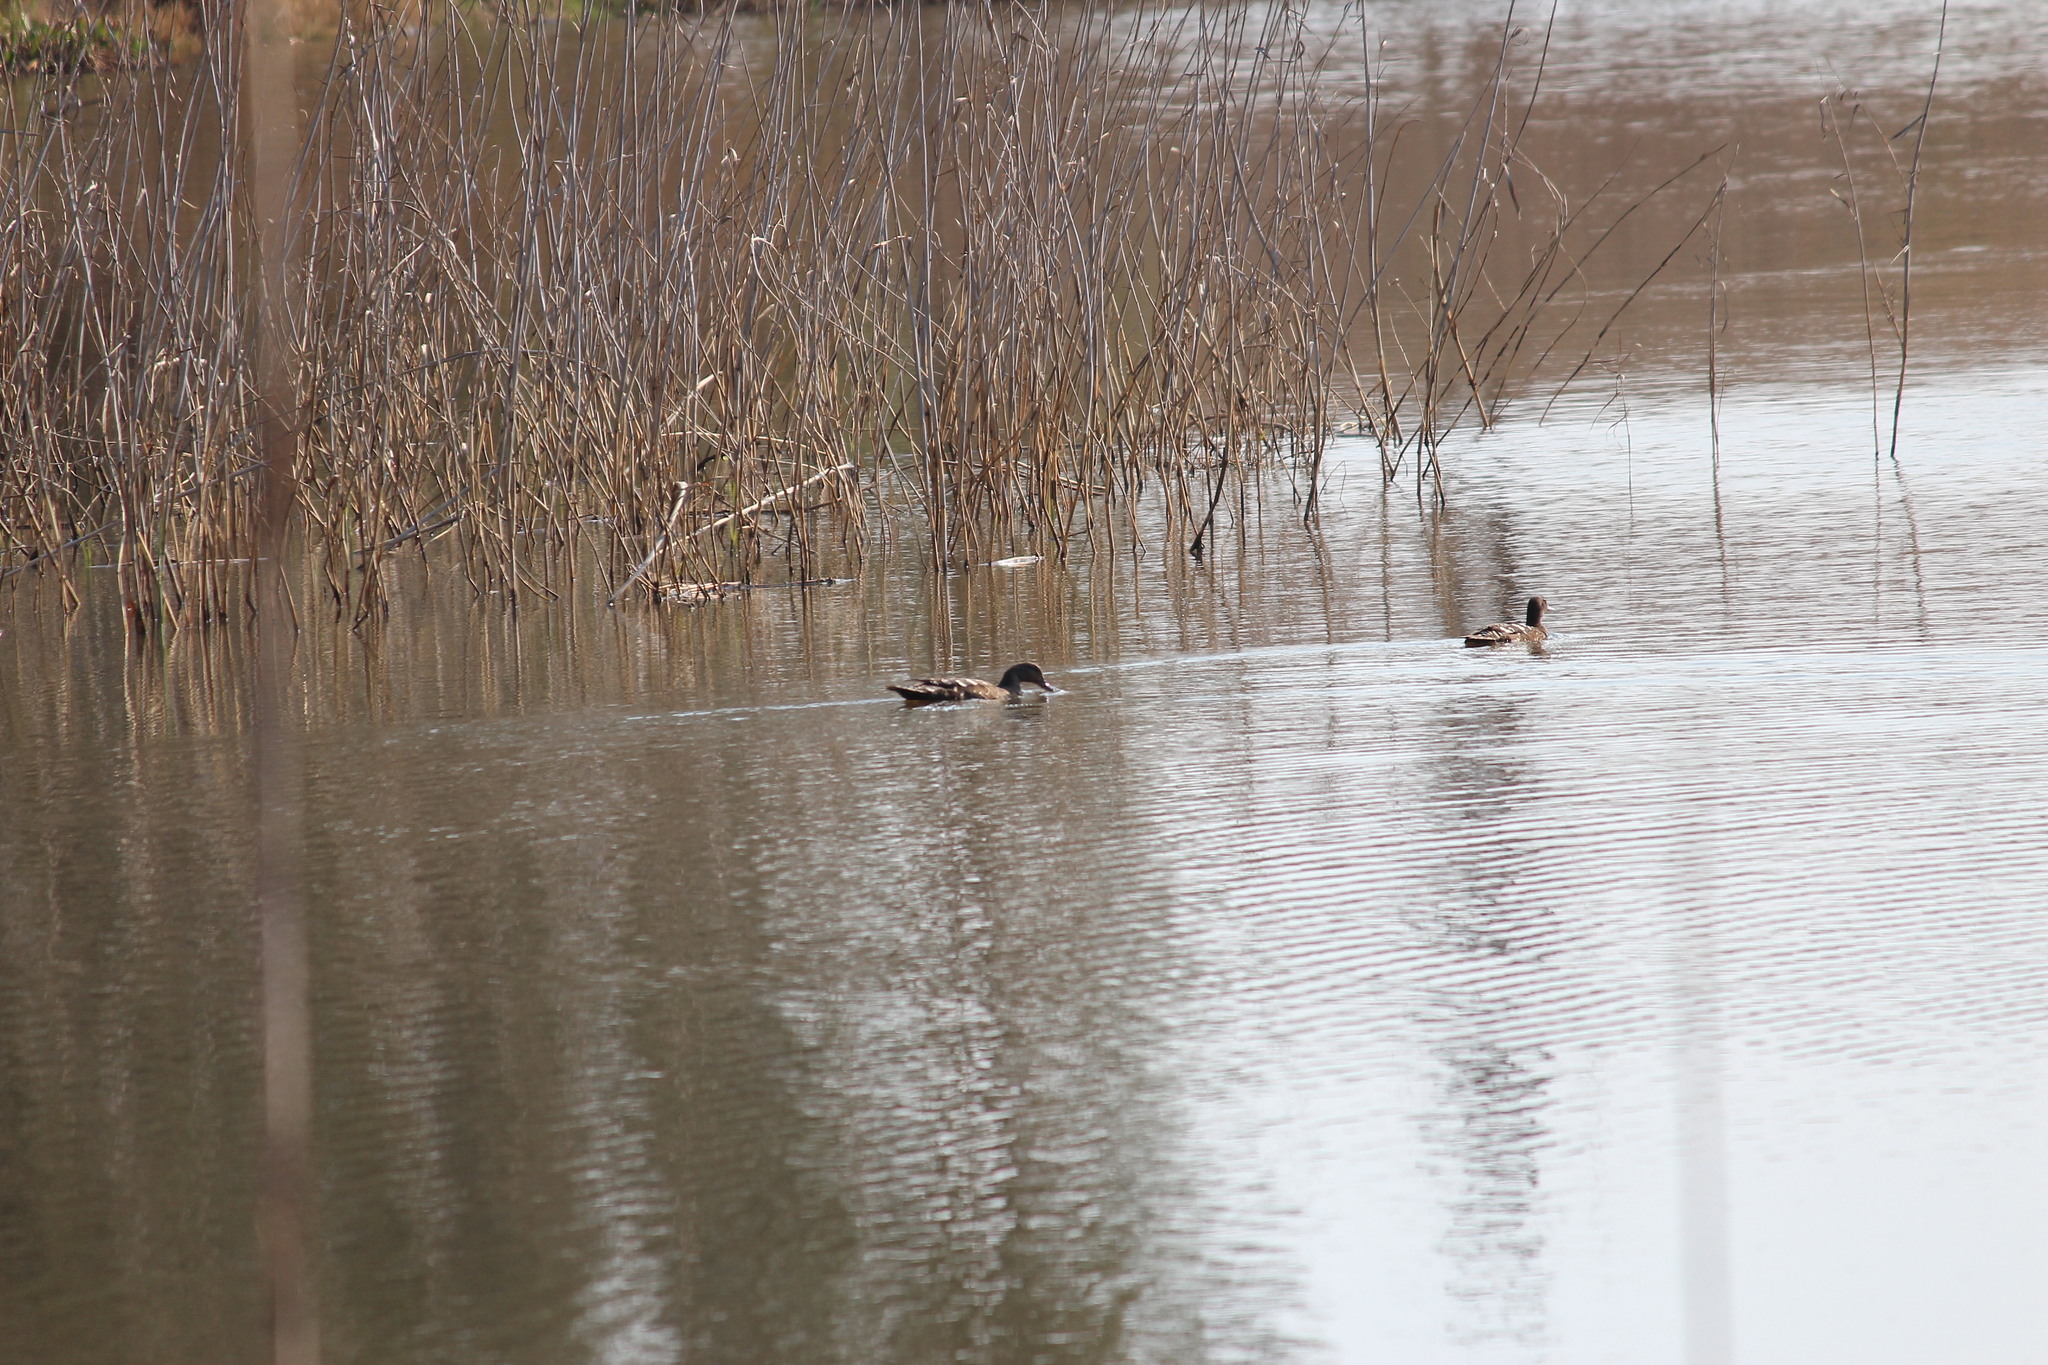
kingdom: Animalia
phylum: Chordata
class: Aves
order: Anseriformes
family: Anatidae
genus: Anas
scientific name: Anas sparsa
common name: African black duck
